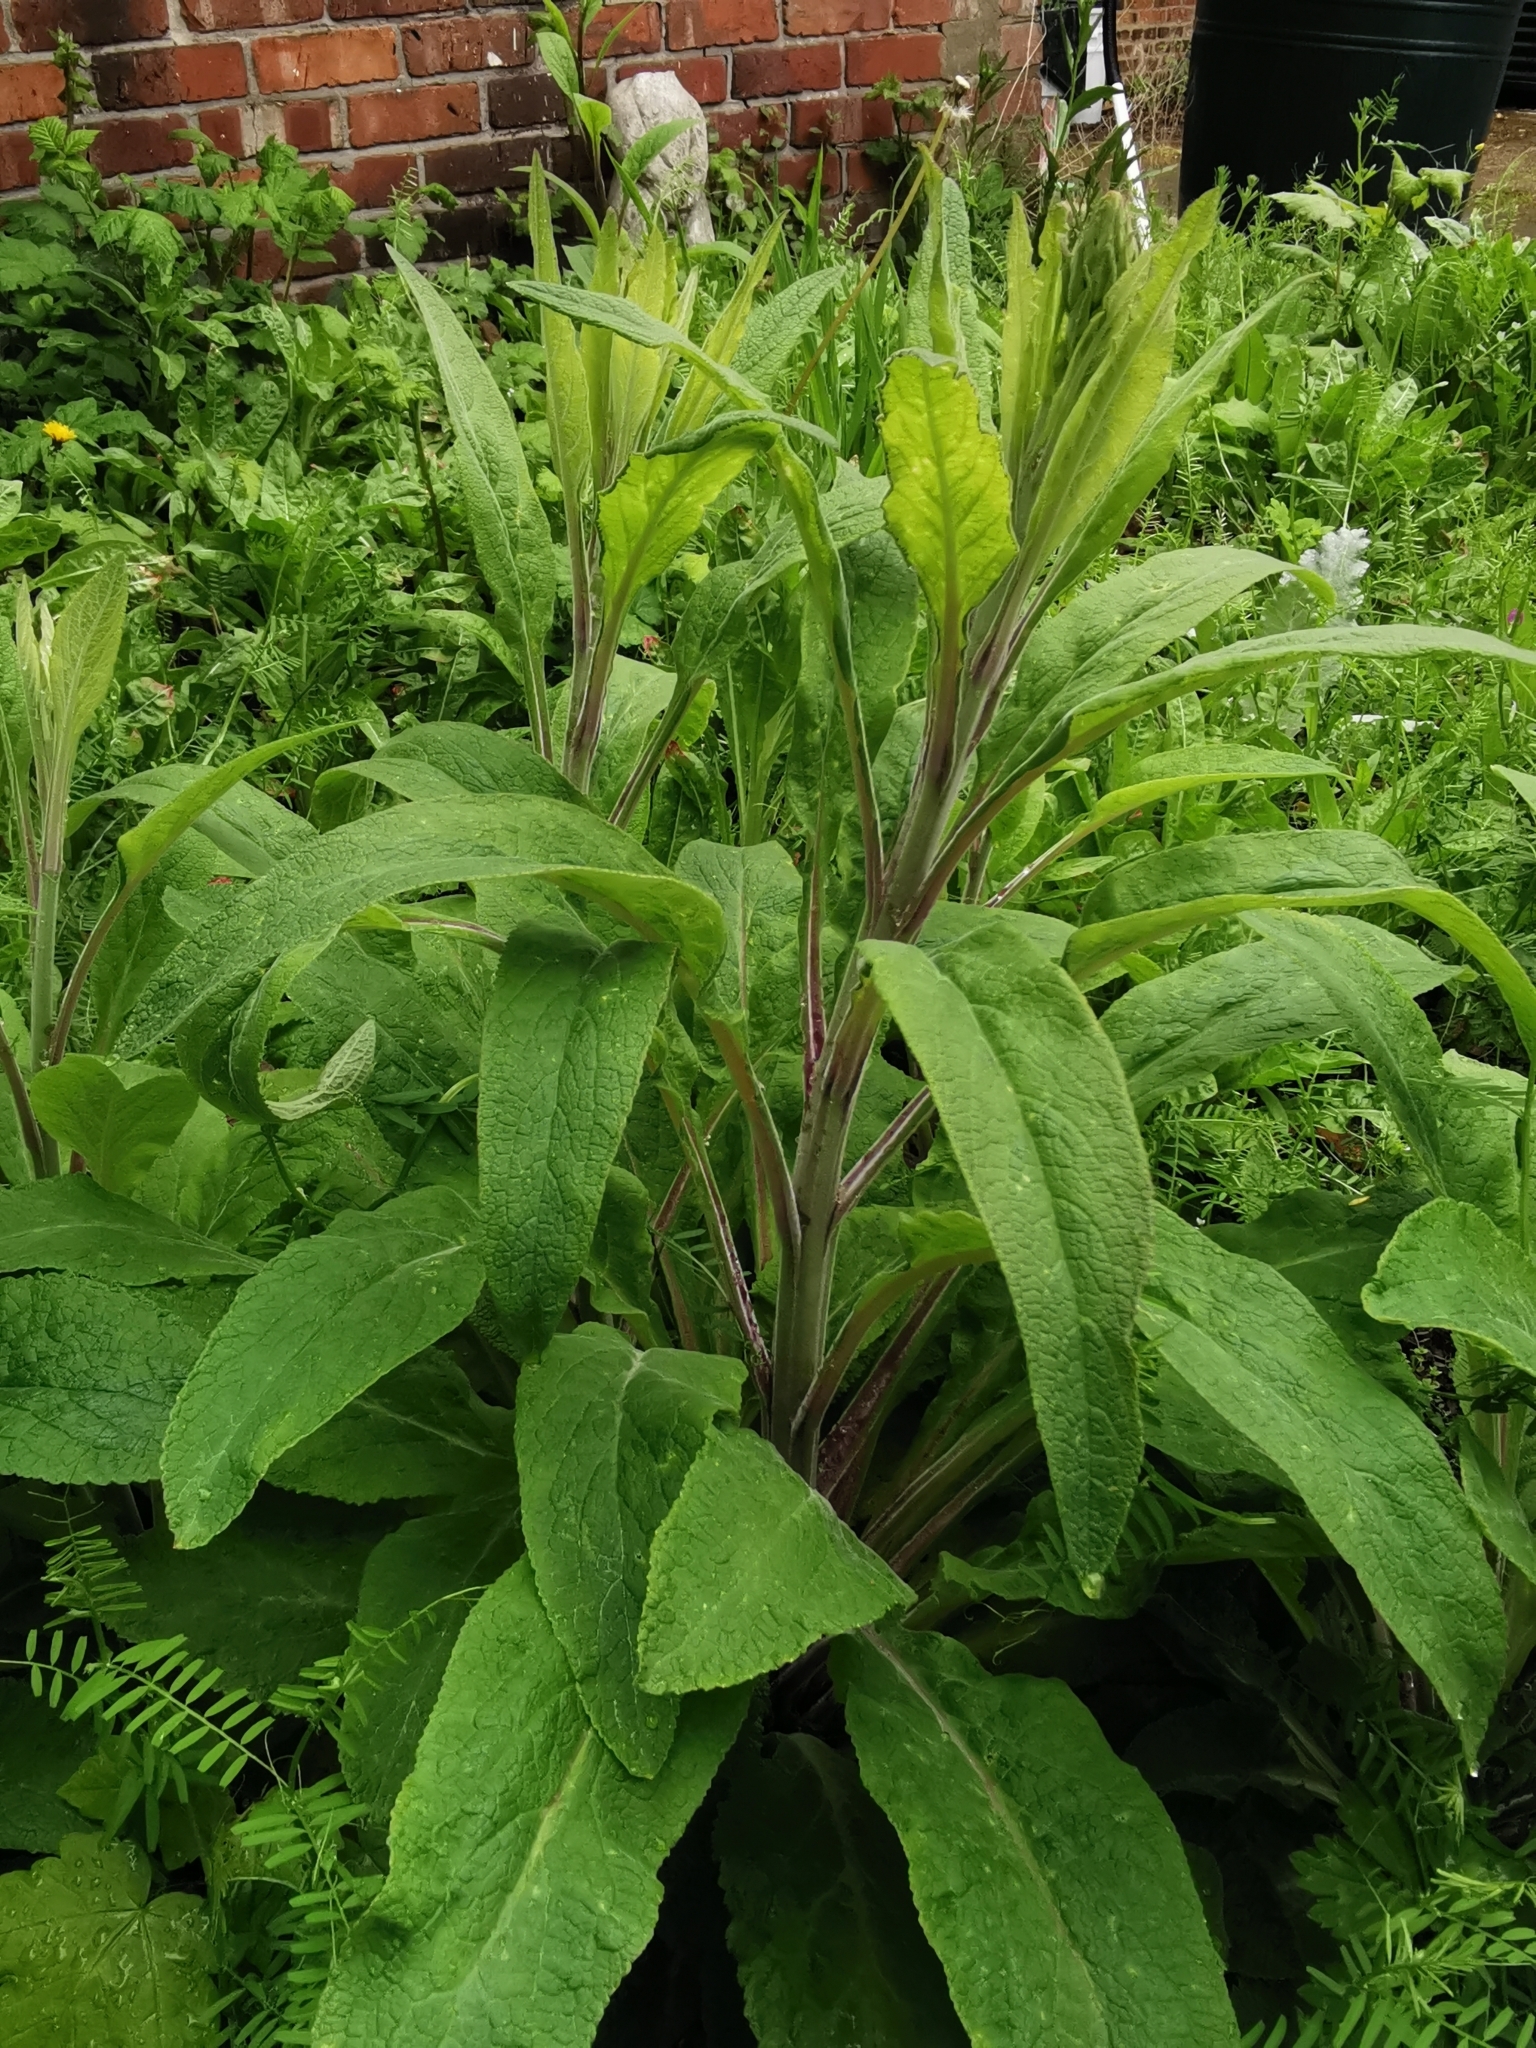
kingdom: Plantae
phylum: Tracheophyta
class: Magnoliopsida
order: Lamiales
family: Plantaginaceae
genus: Digitalis
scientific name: Digitalis purpurea
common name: Foxglove
